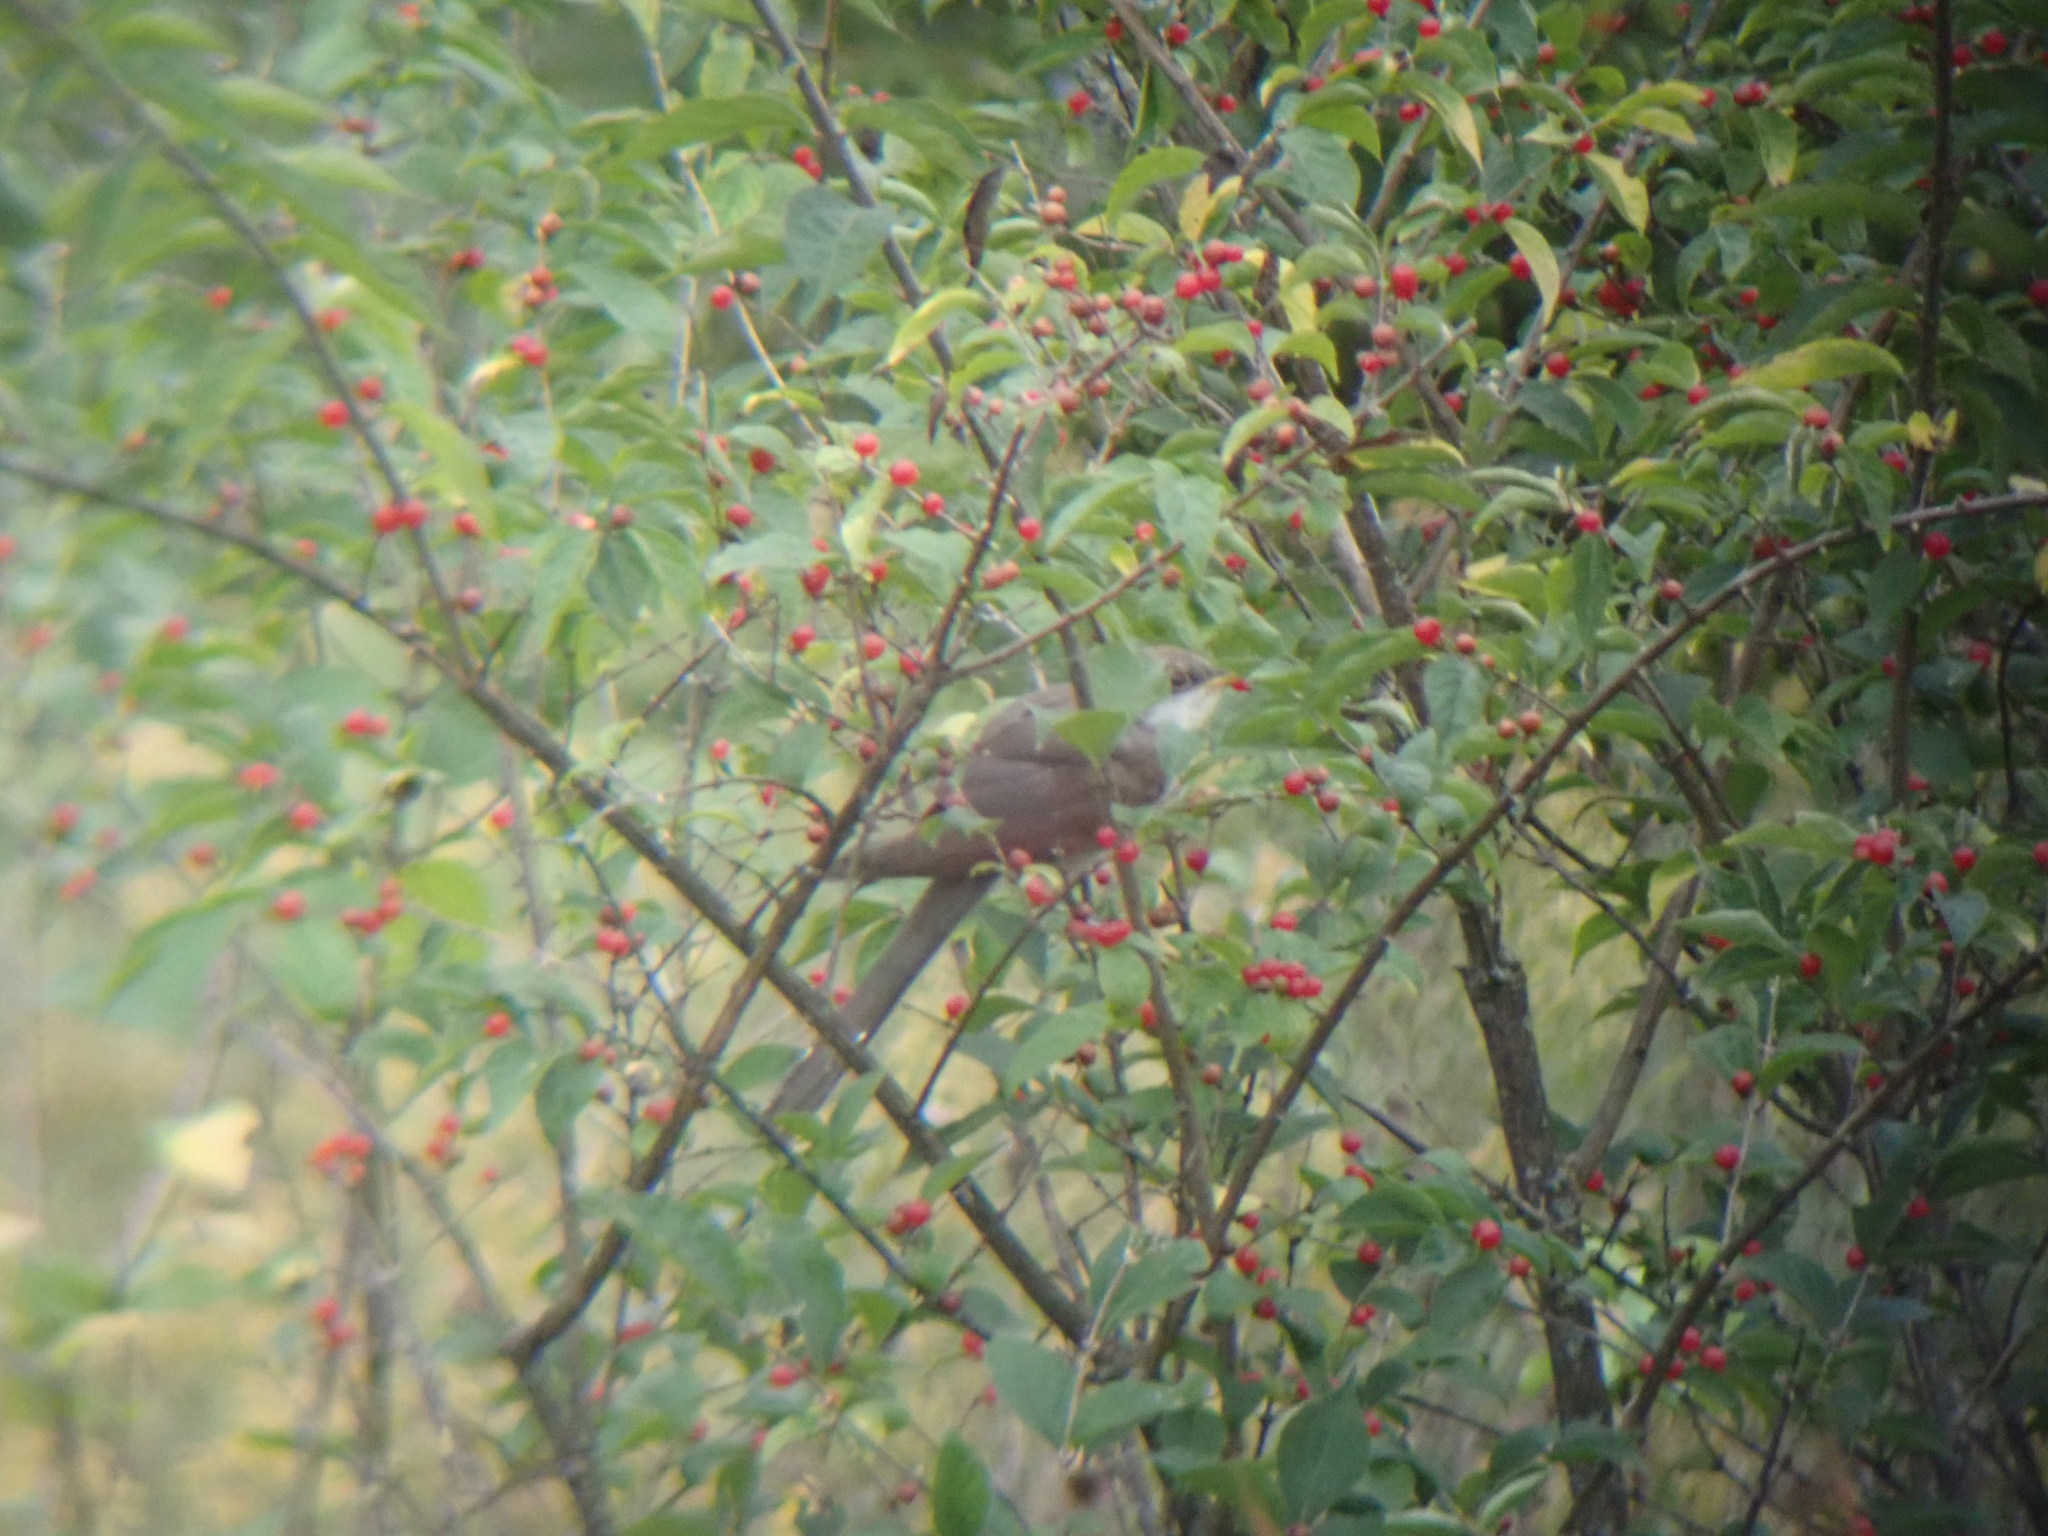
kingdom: Animalia
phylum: Chordata
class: Aves
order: Cuculiformes
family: Cuculidae
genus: Coccyzus
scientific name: Coccyzus americanus
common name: Yellow-billed cuckoo
